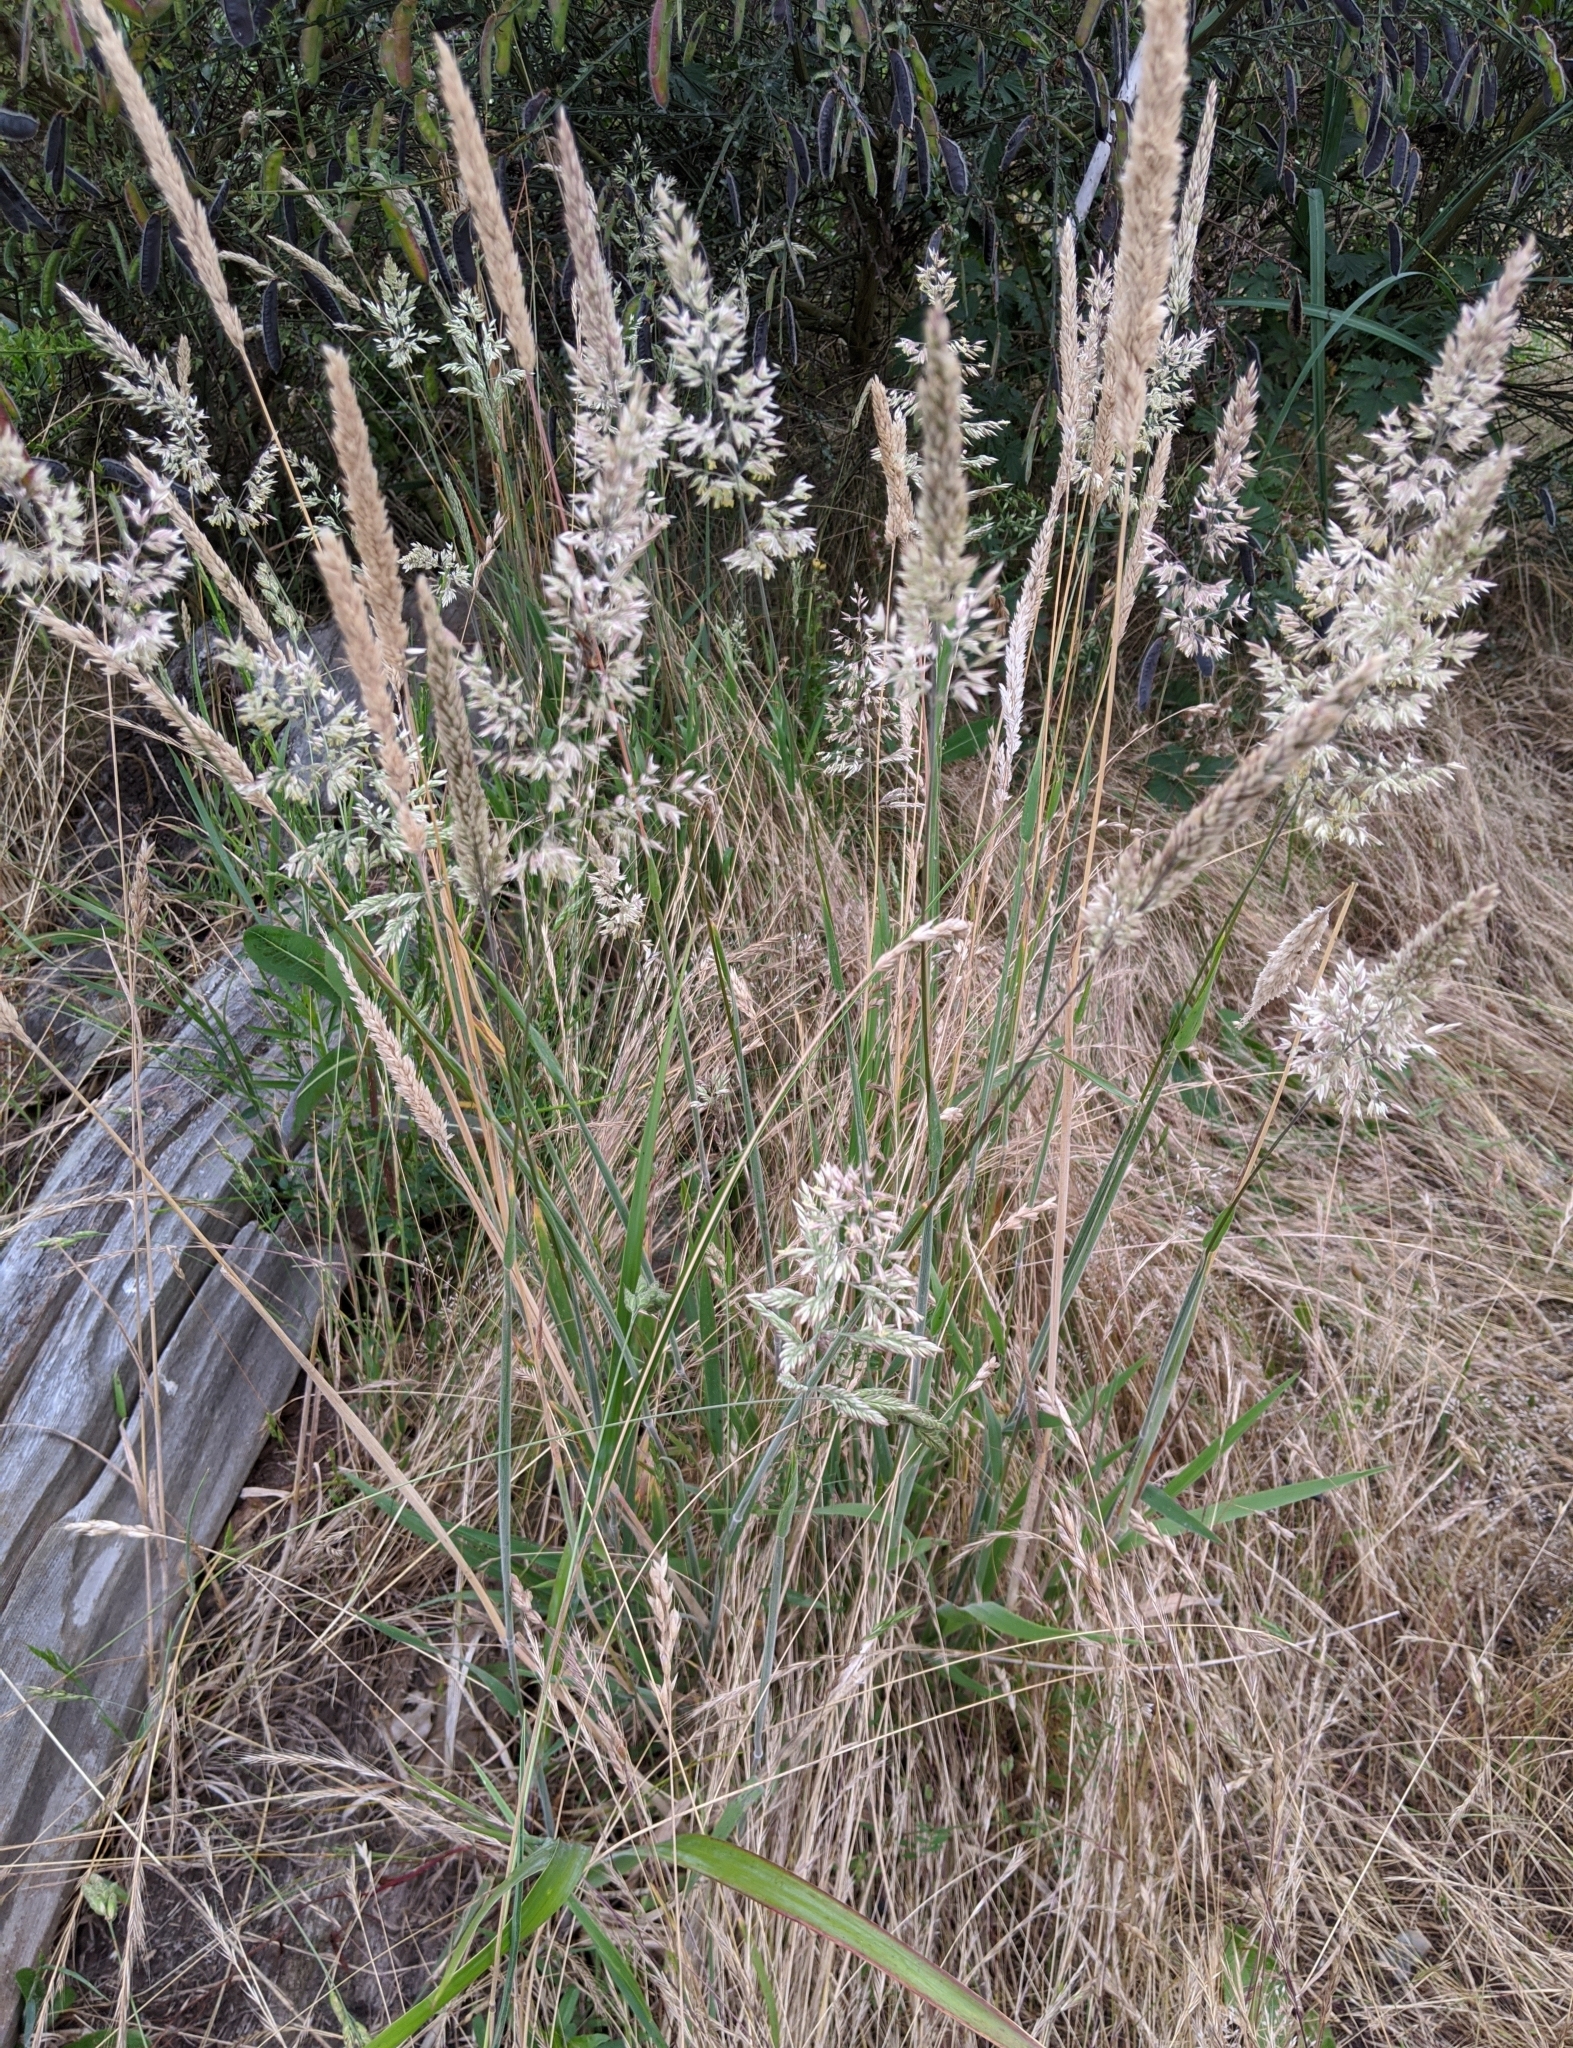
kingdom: Plantae
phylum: Tracheophyta
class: Liliopsida
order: Poales
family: Poaceae
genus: Holcus
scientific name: Holcus lanatus
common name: Yorkshire-fog
